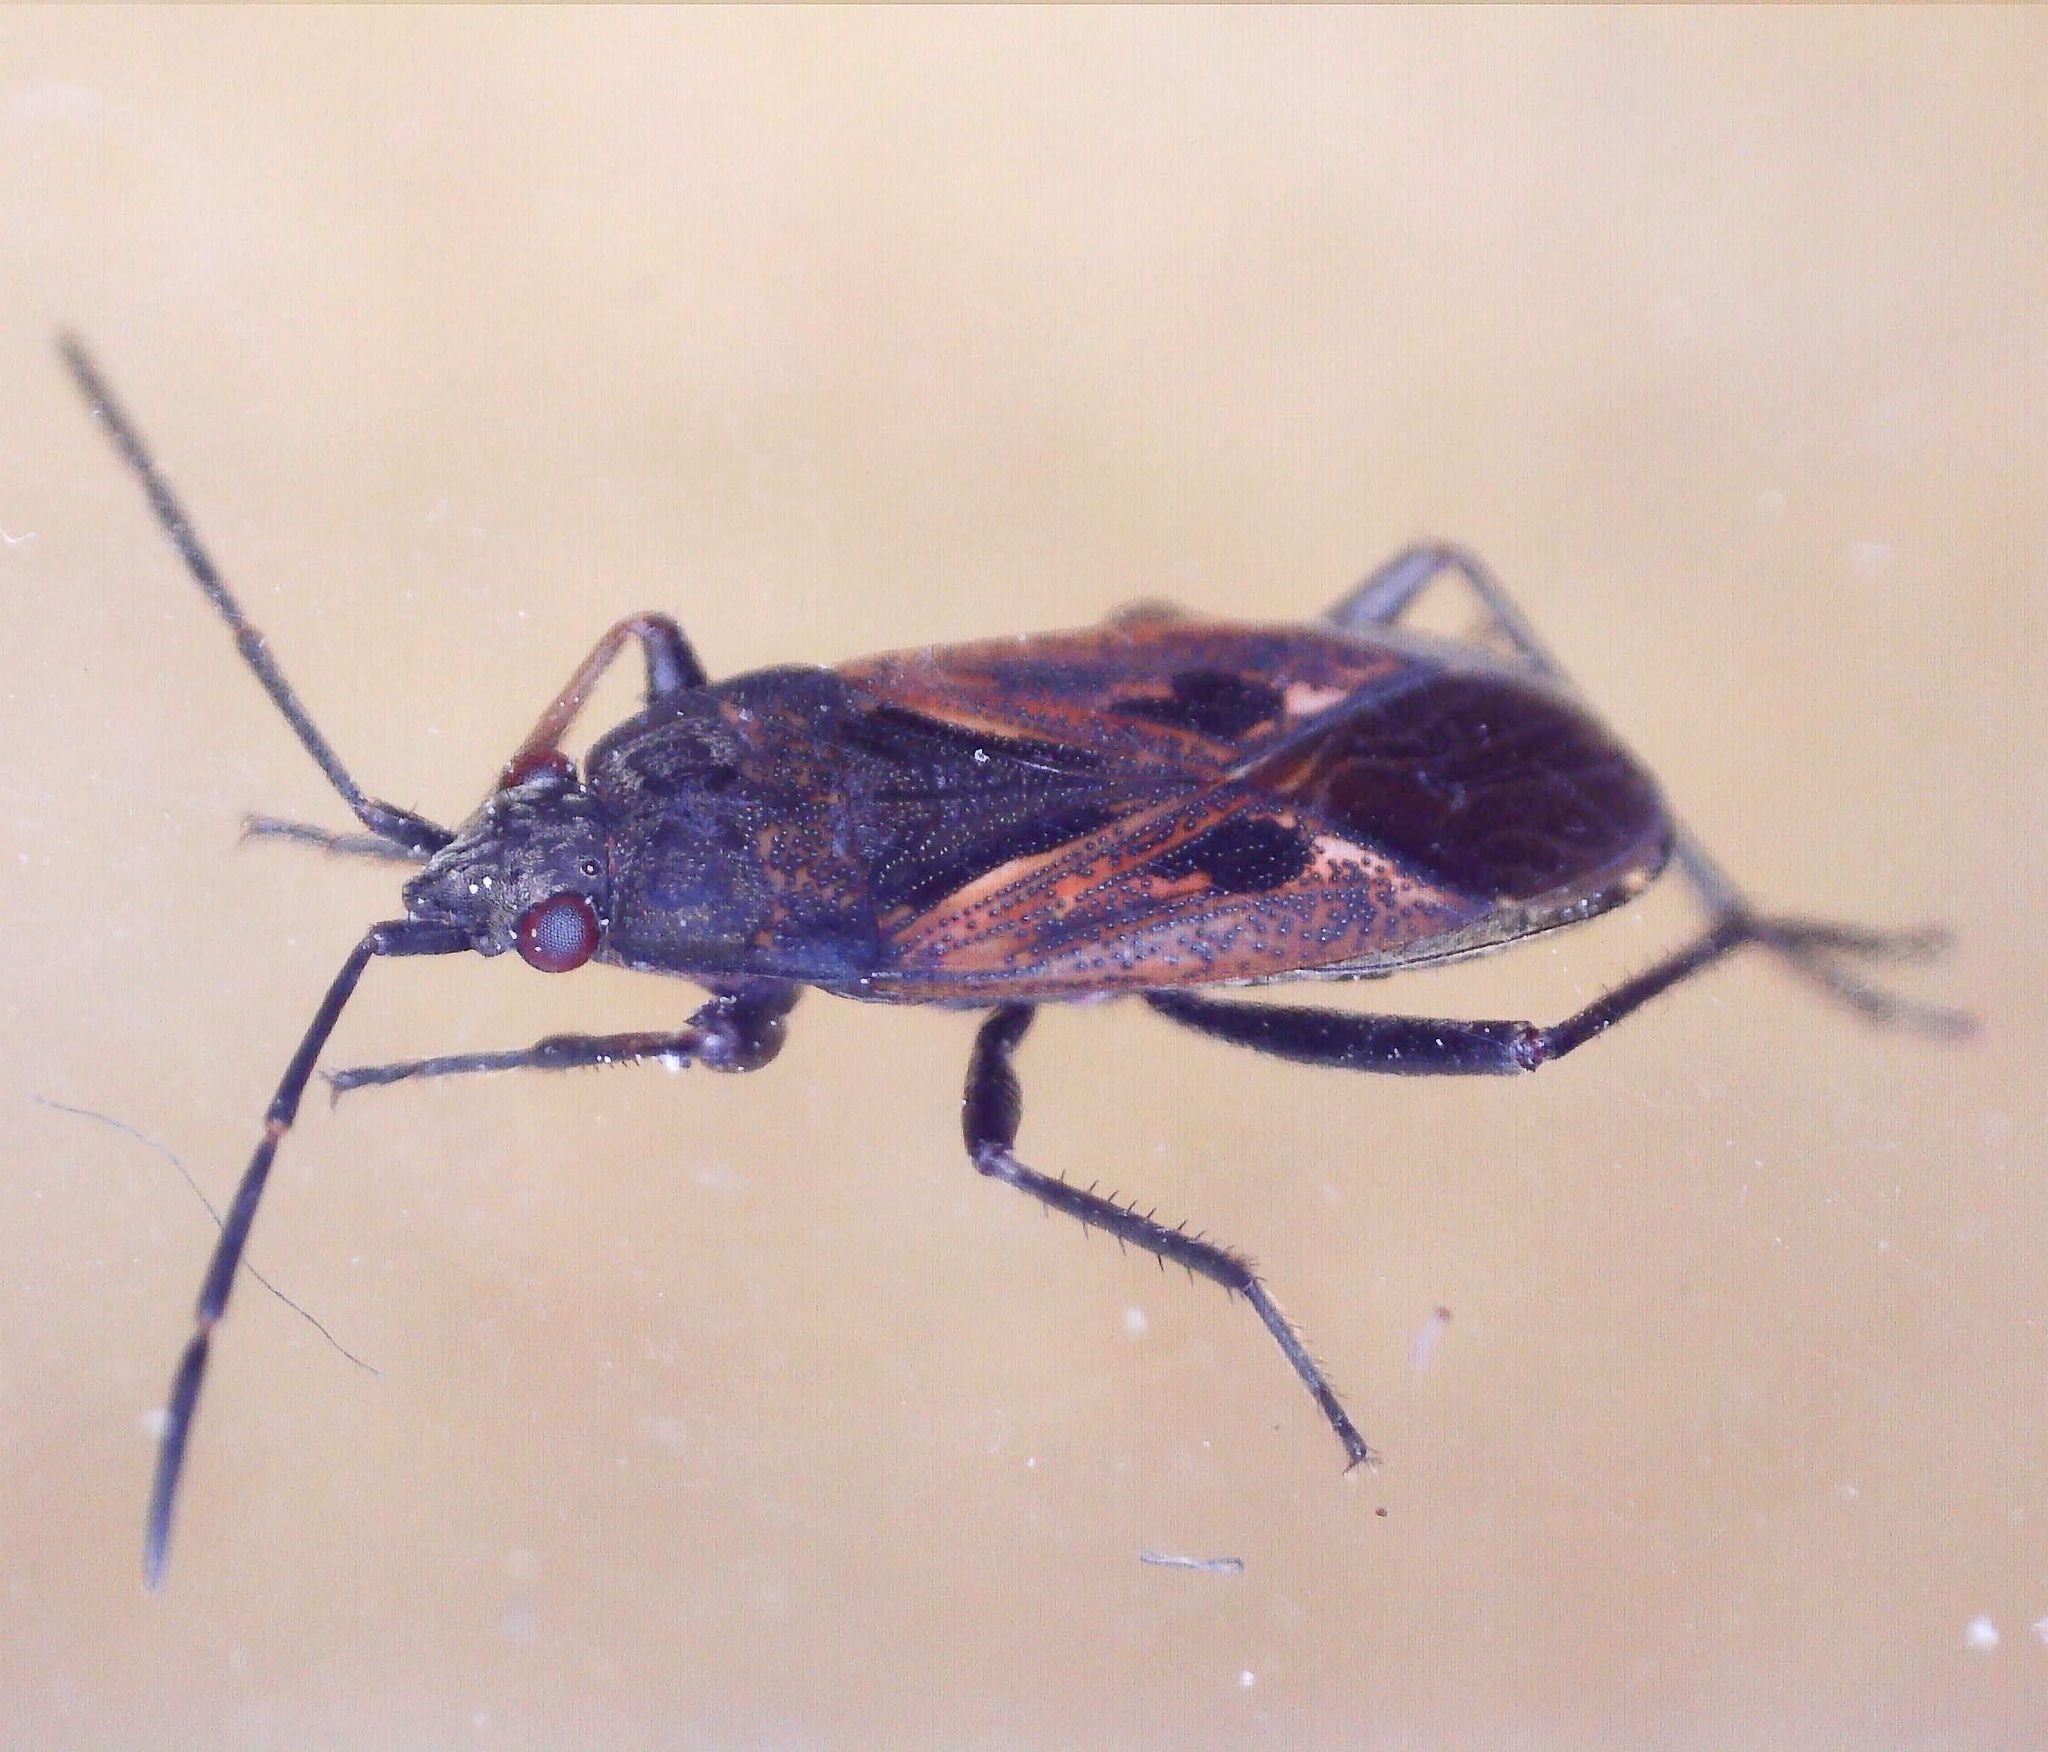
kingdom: Animalia
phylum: Arthropoda
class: Insecta
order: Hemiptera
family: Rhyparochromidae
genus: Rhyparochromus
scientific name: Rhyparochromus pini
